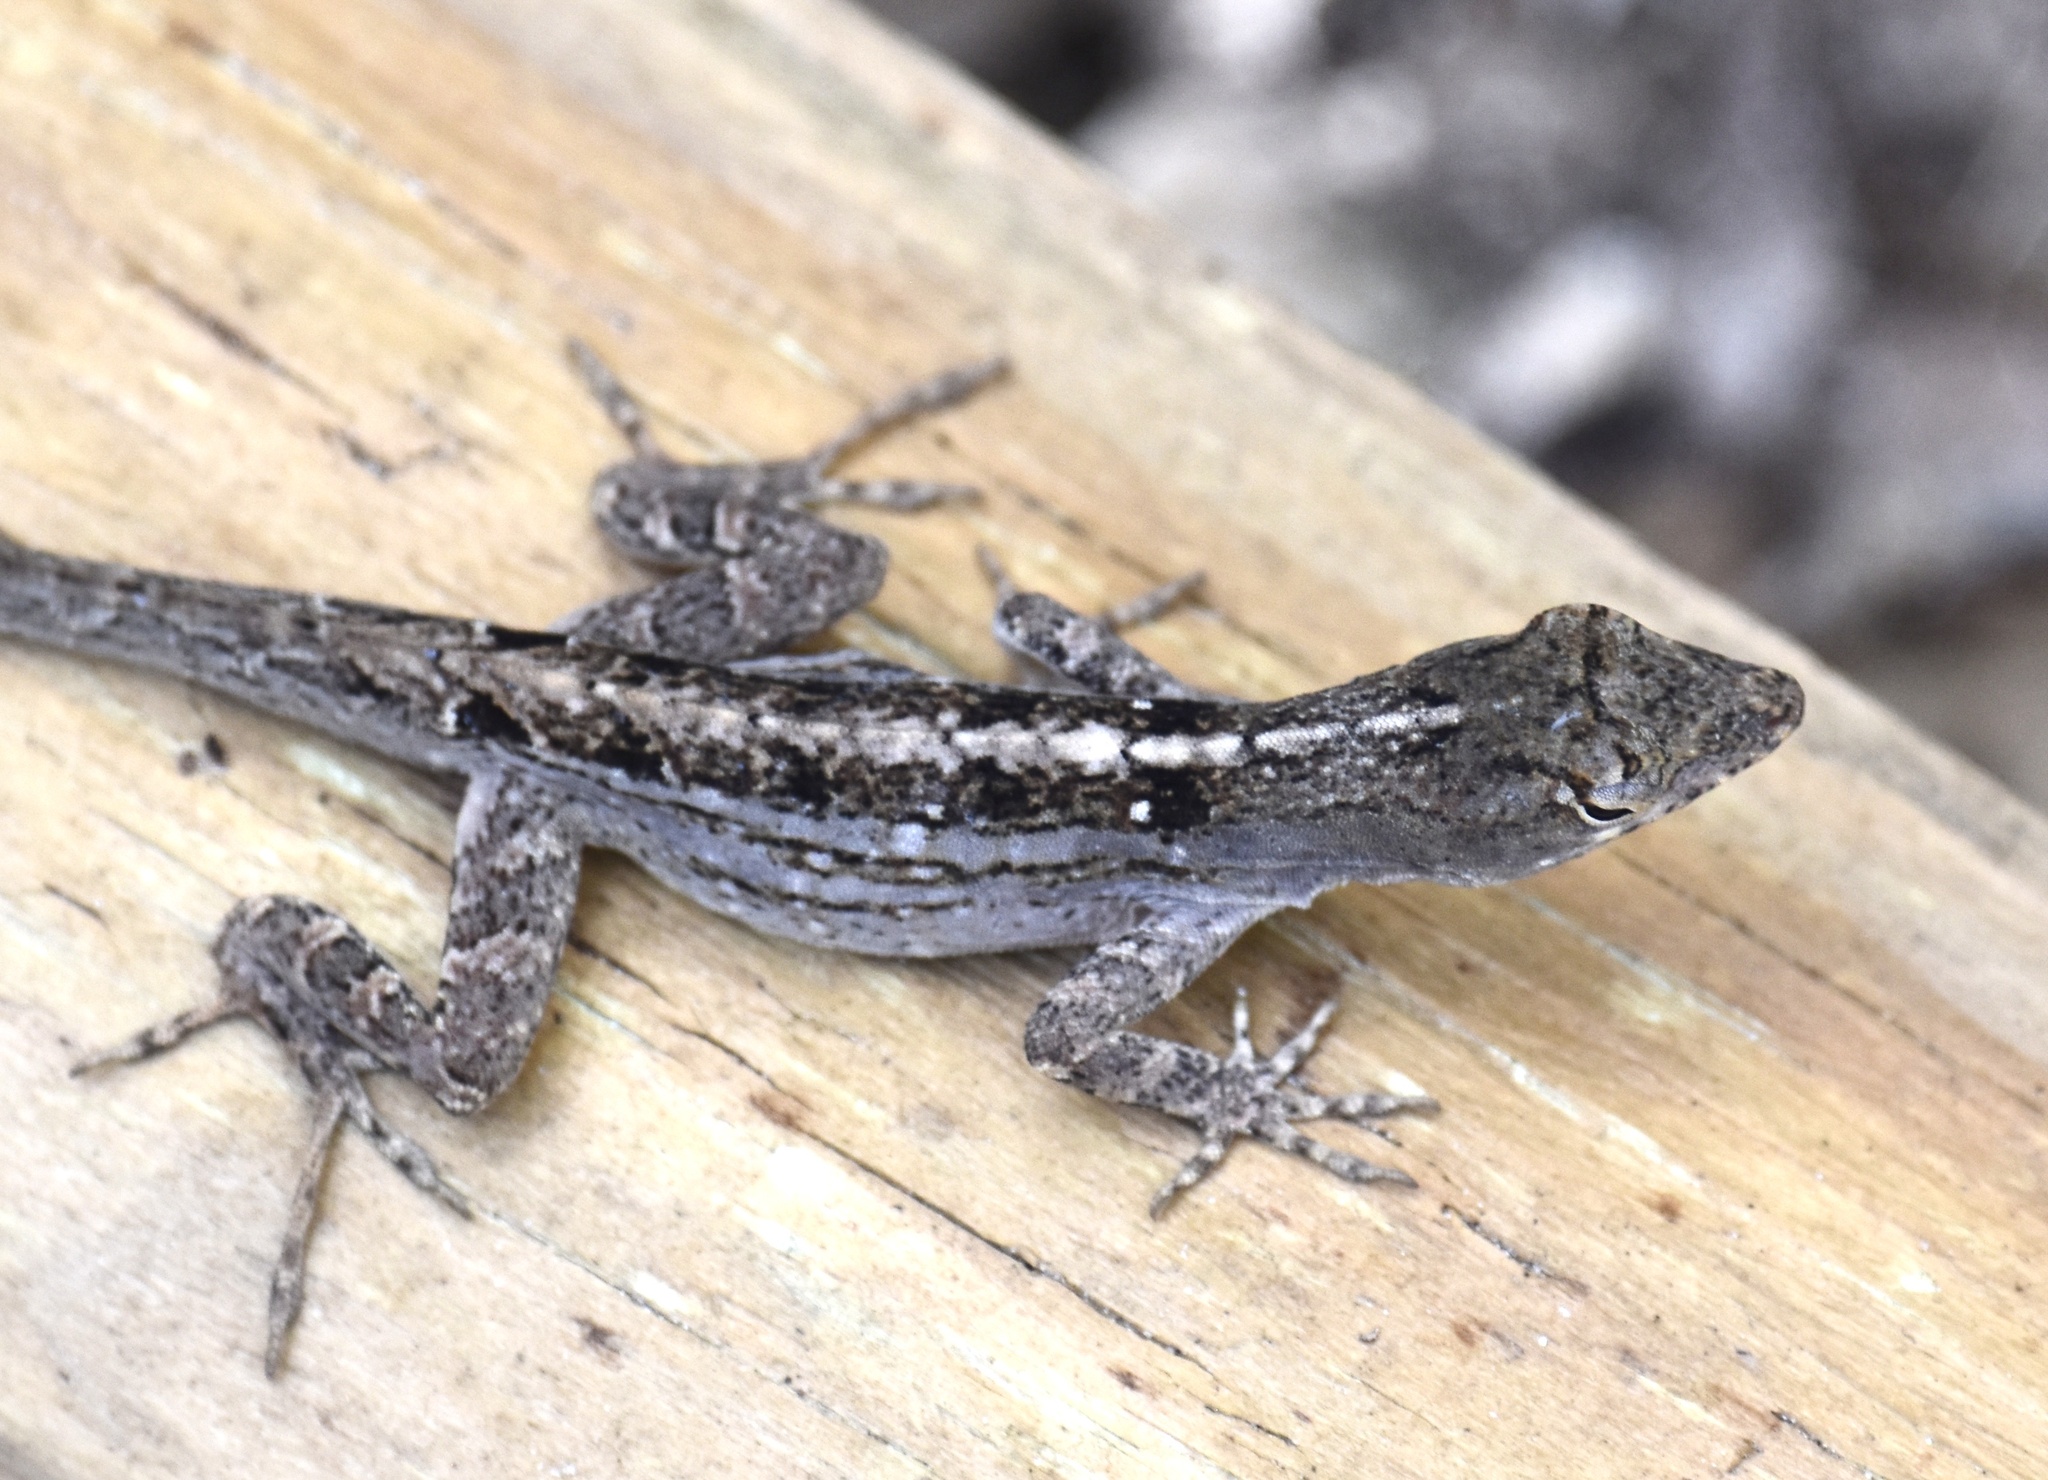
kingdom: Animalia
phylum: Chordata
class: Squamata
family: Dactyloidae
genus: Anolis
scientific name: Anolis sagrei
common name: Brown anole
